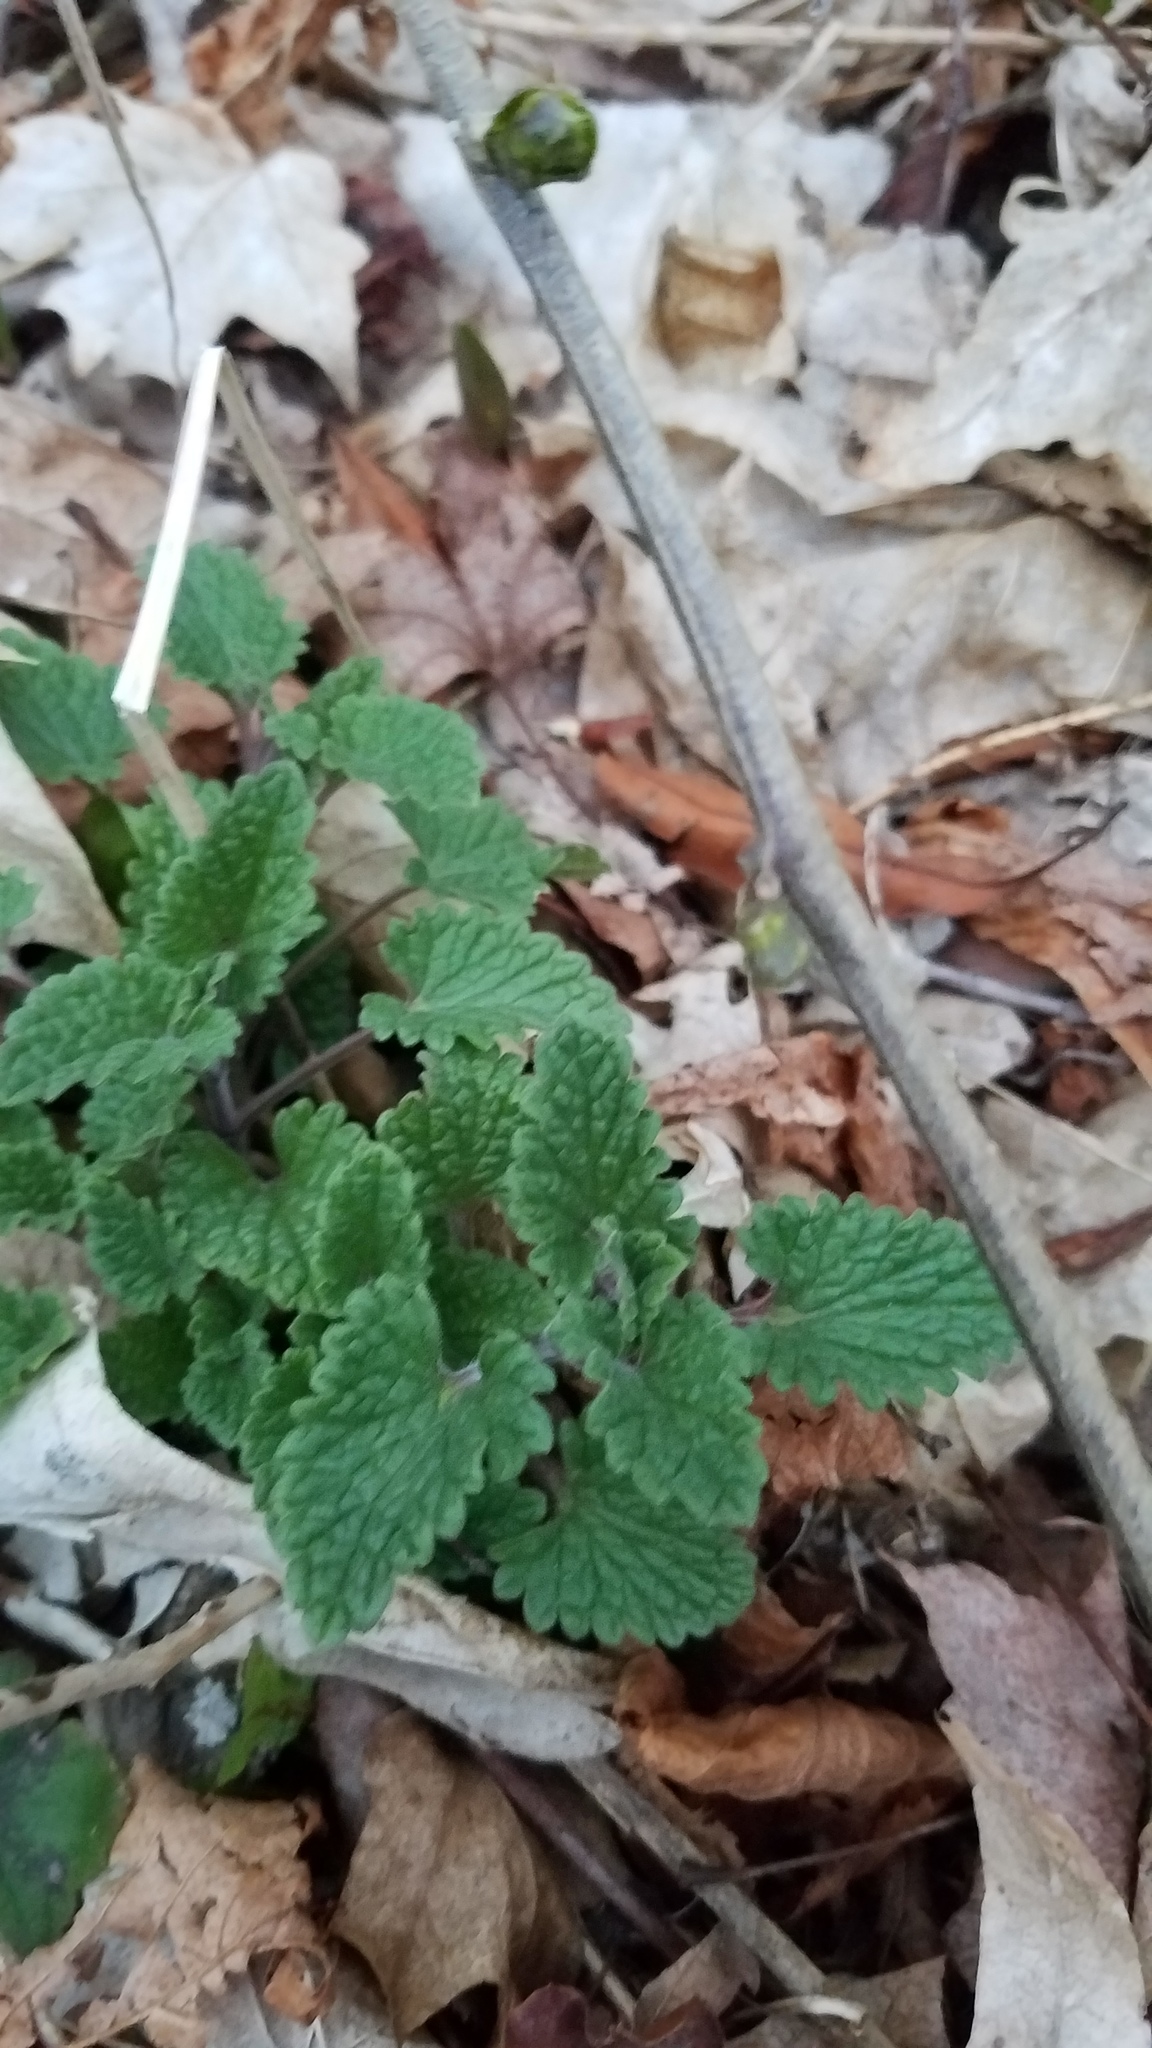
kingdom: Plantae
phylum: Tracheophyta
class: Magnoliopsida
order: Lamiales
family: Lamiaceae
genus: Nepeta
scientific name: Nepeta cataria
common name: Catnip
